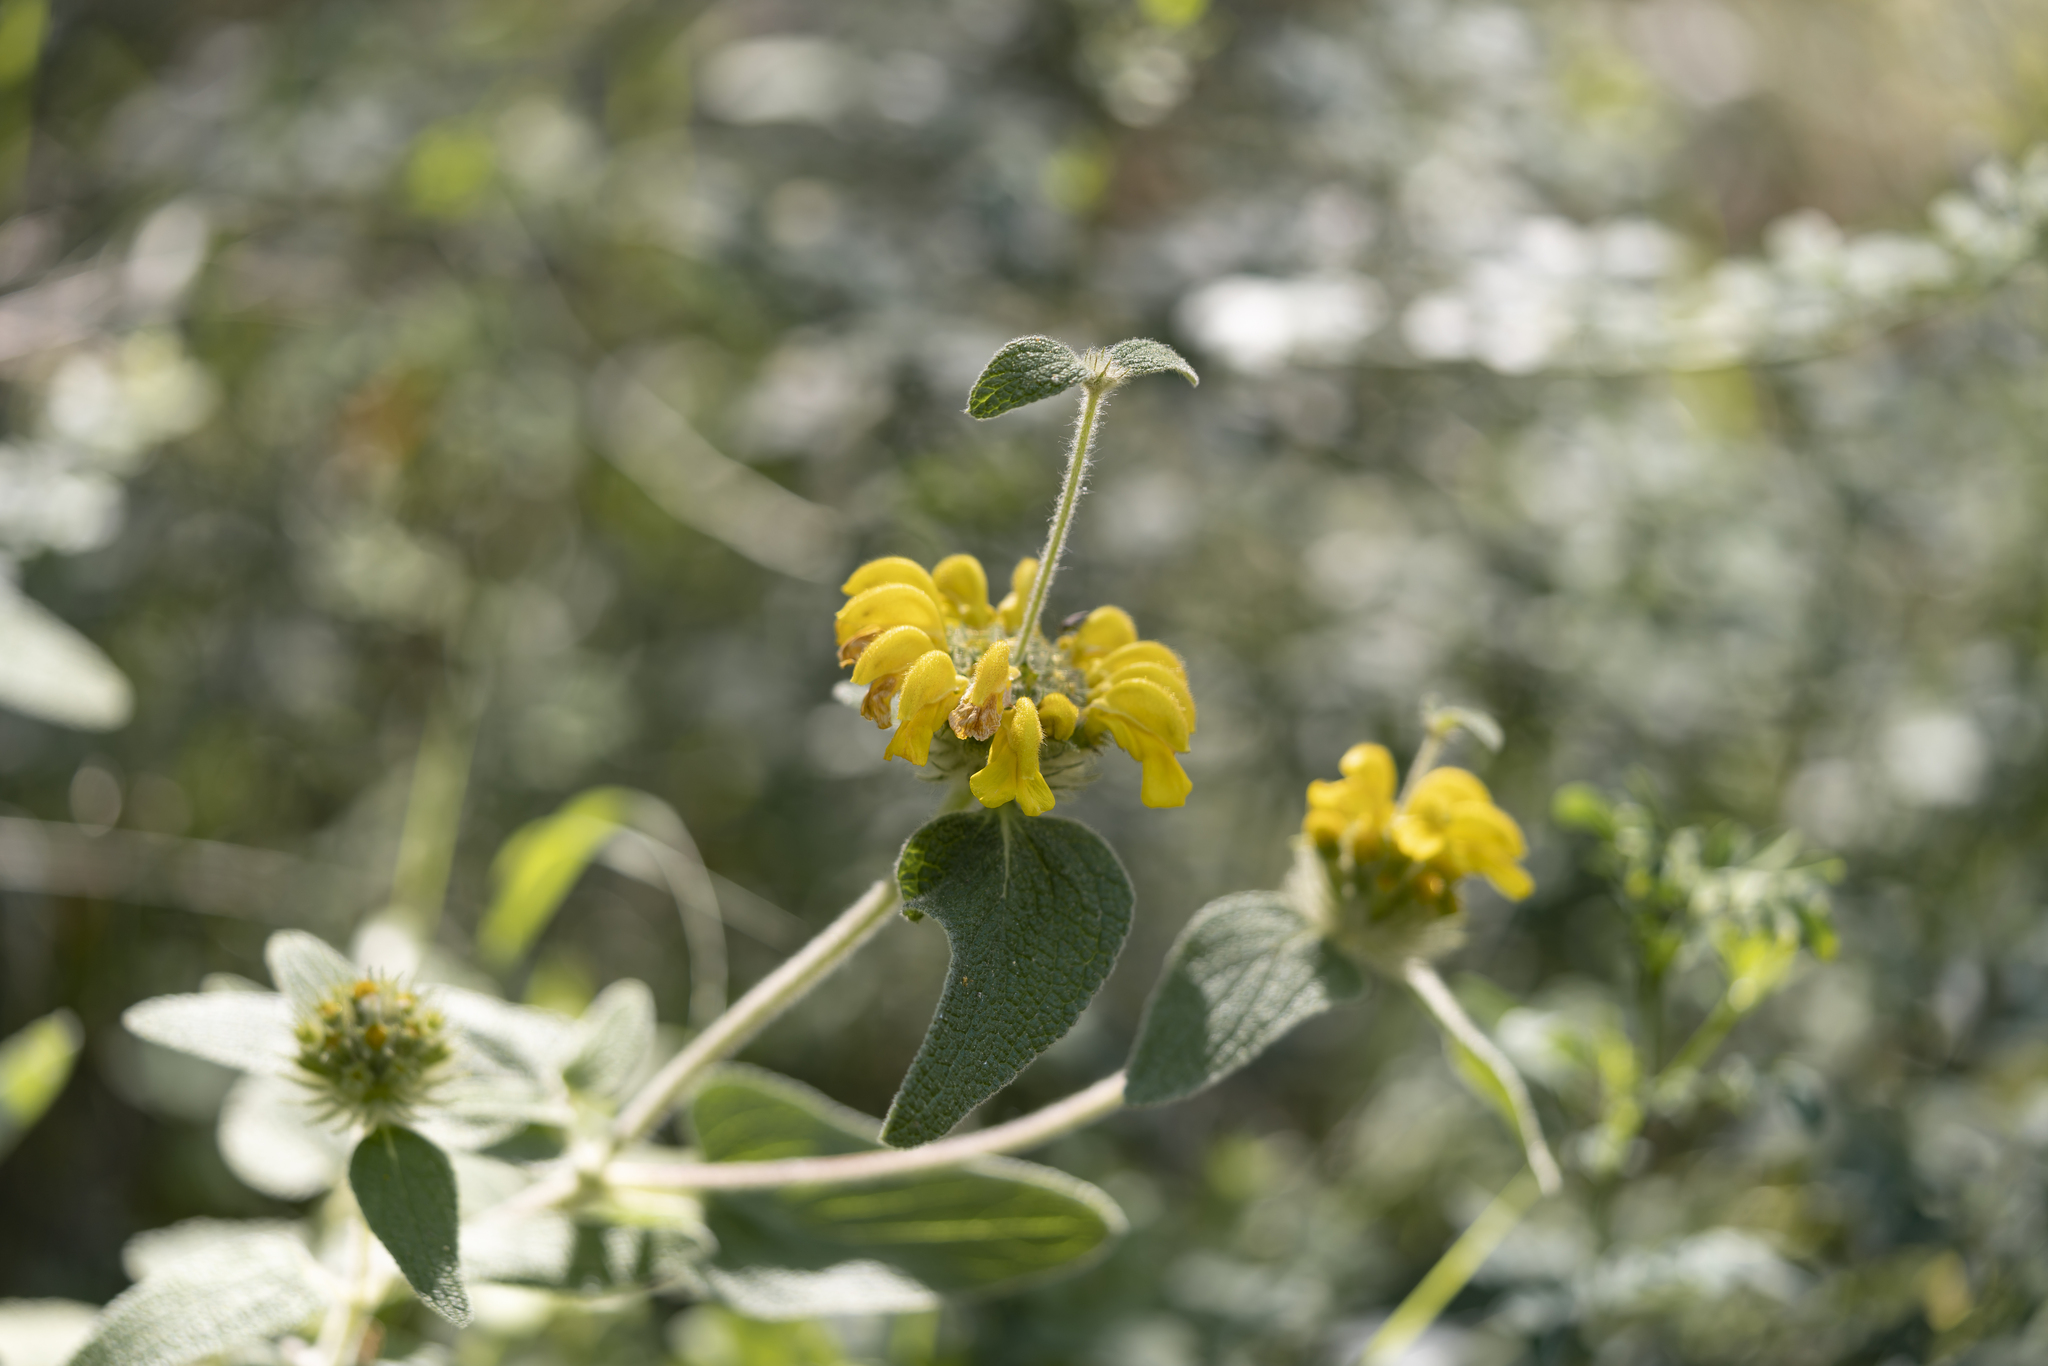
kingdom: Plantae
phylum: Tracheophyta
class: Magnoliopsida
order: Lamiales
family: Lamiaceae
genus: Phlomis
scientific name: Phlomis bourgaei
